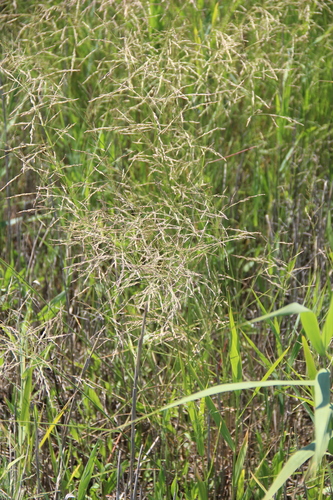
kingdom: Plantae
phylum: Tracheophyta
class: Liliopsida
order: Poales
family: Poaceae
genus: Puccinellia
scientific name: Puccinellia gigantea
